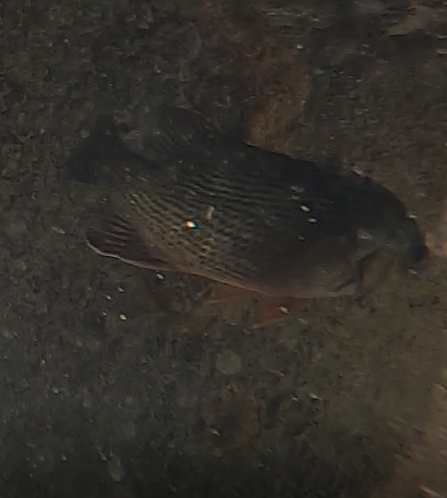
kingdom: Animalia
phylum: Chordata
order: Perciformes
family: Lutjanidae
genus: Lutjanus
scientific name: Lutjanus griseus
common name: Gray snapper
